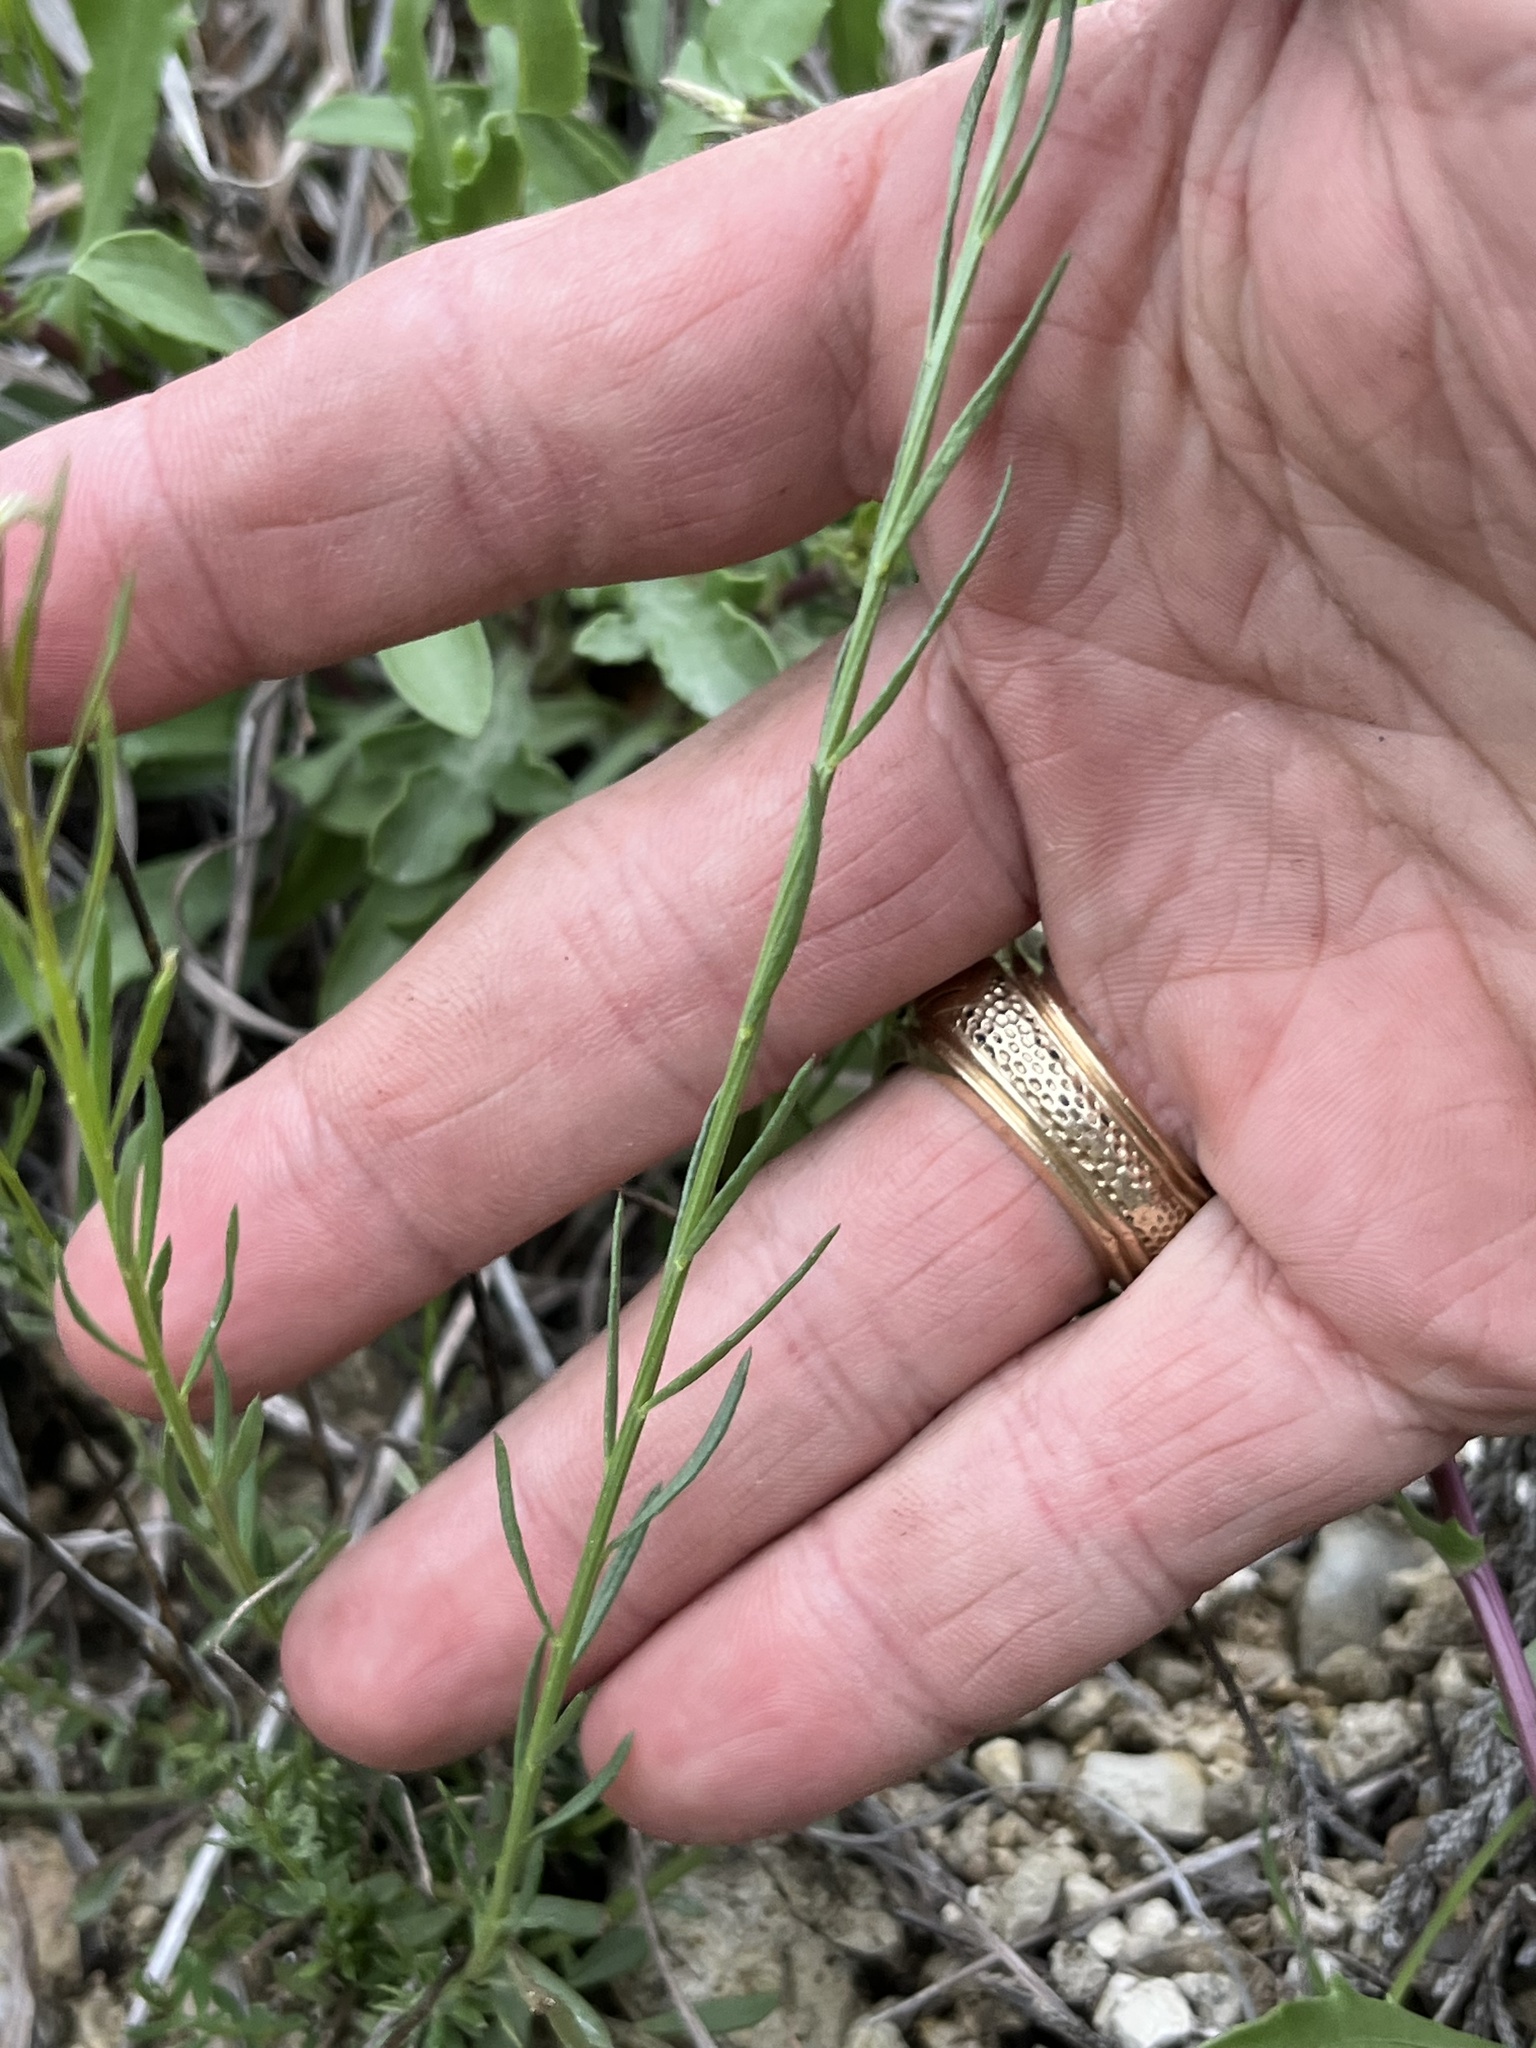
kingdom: Plantae
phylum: Tracheophyta
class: Magnoliopsida
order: Fabales
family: Polygalaceae
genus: Polygala
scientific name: Polygala alba
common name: White milkwort
